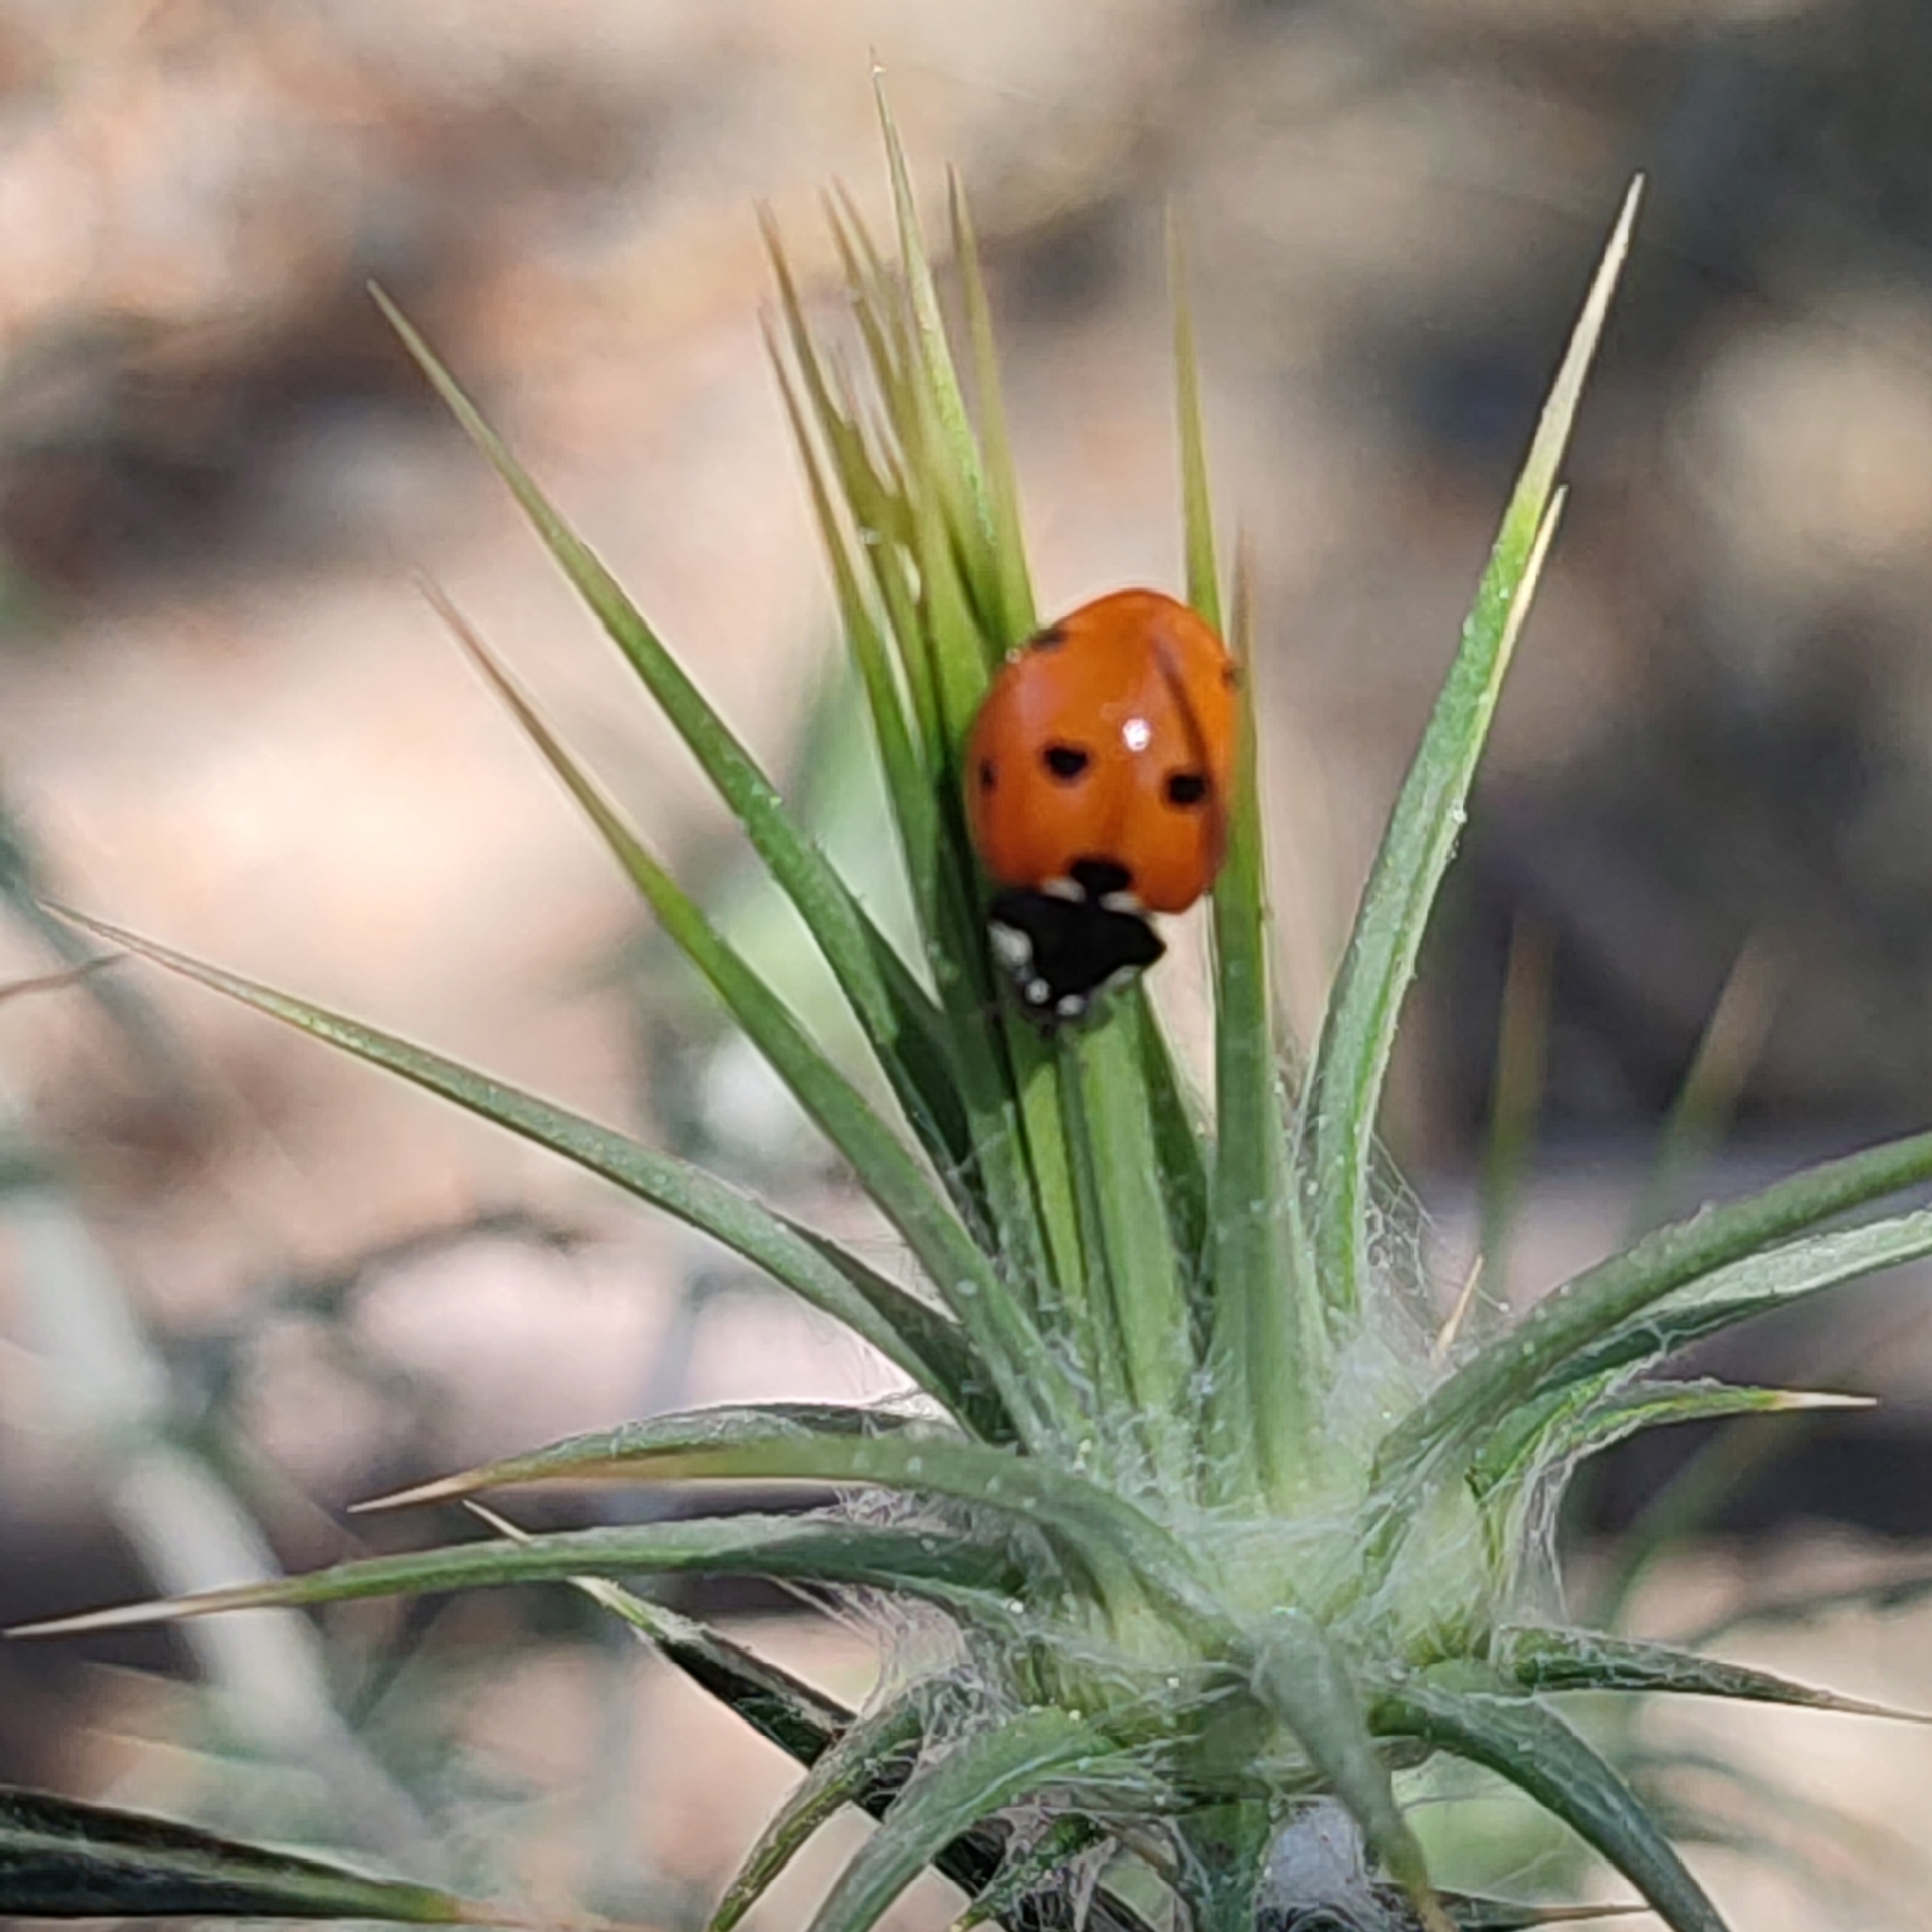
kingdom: Animalia
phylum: Arthropoda
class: Insecta
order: Coleoptera
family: Coccinellidae
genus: Coccinella
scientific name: Coccinella septempunctata
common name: Sevenspotted lady beetle
